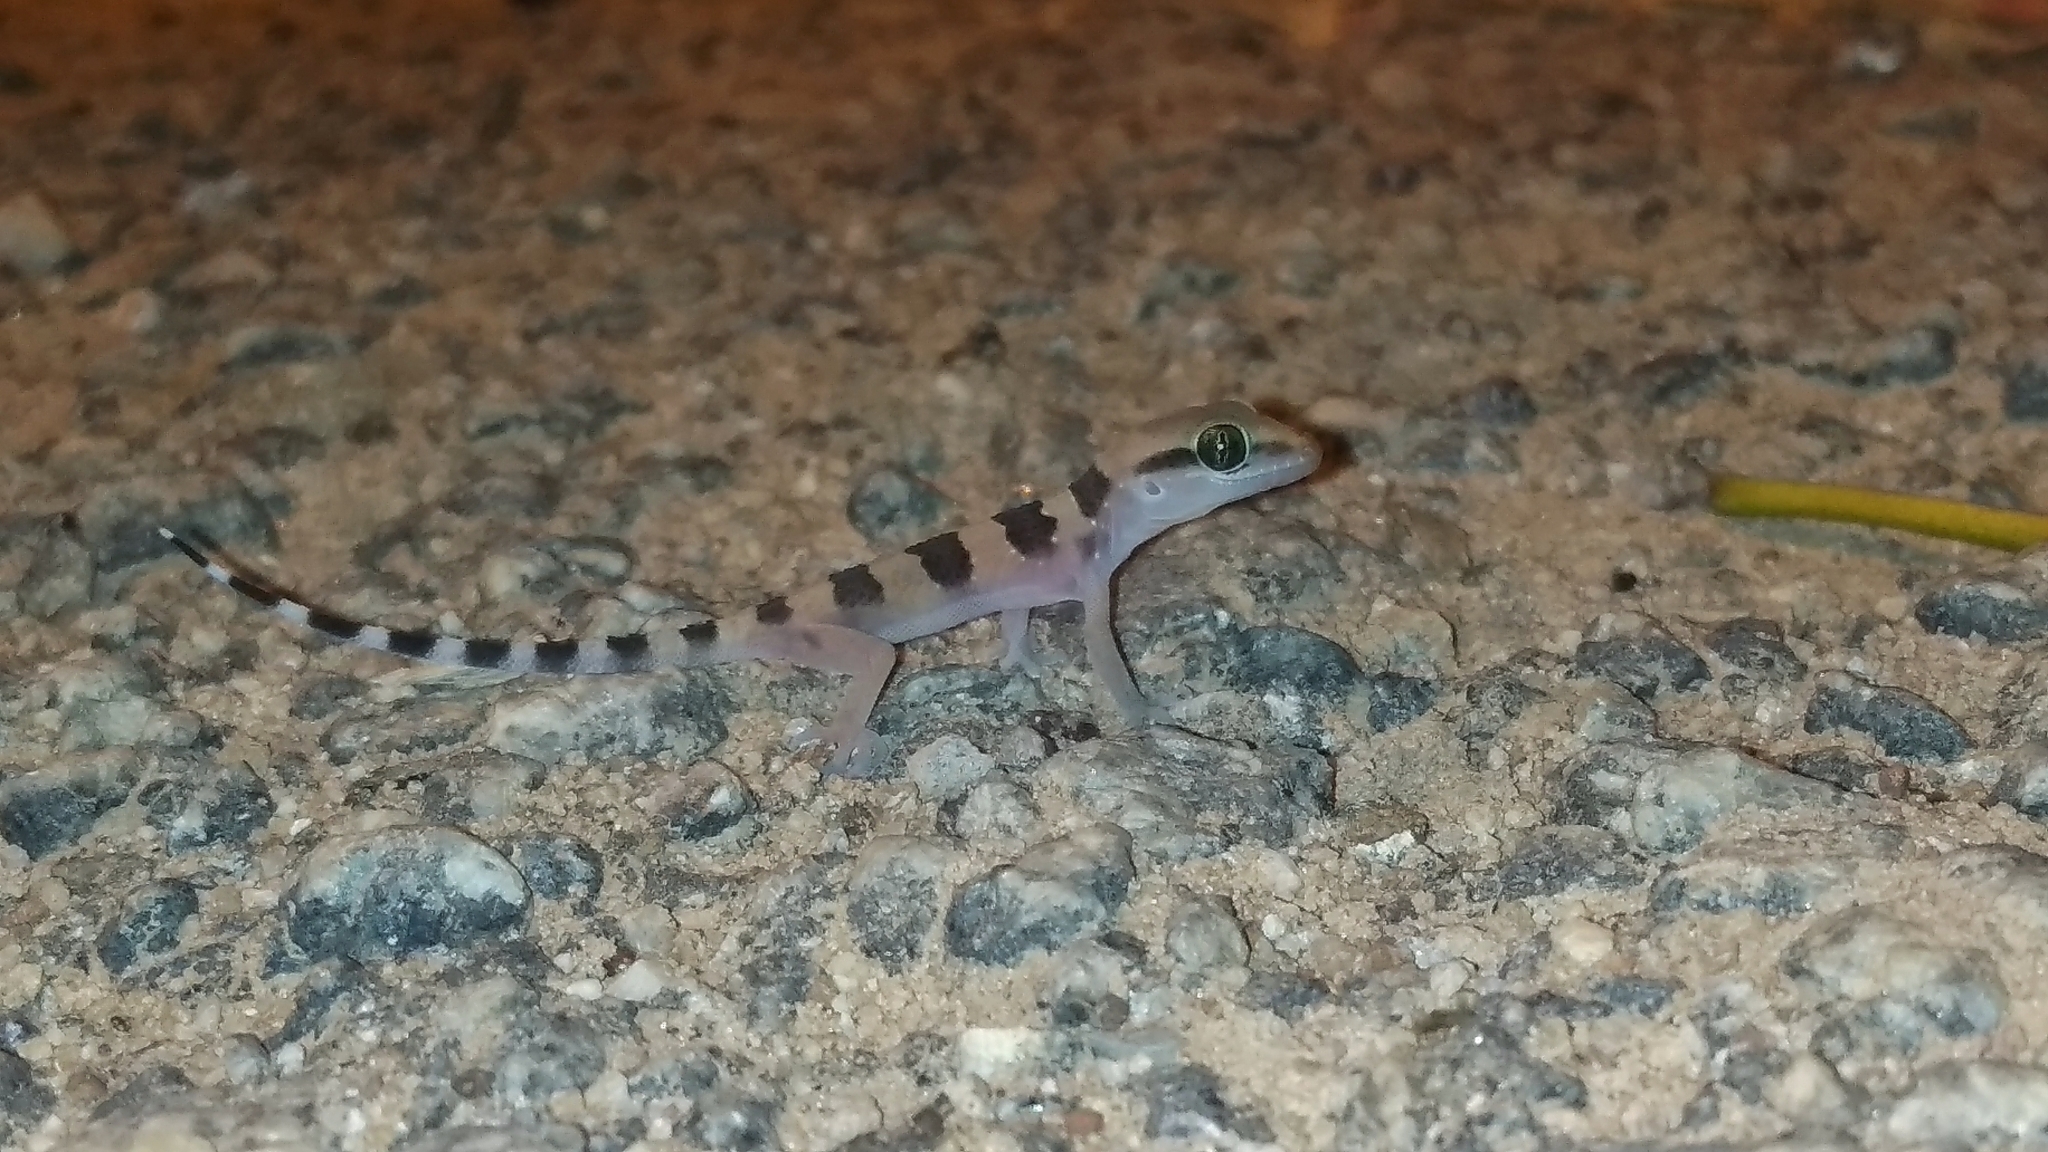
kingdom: Animalia
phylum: Chordata
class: Squamata
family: Gekkonidae
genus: Hemidactylus
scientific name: Hemidactylus triedrus
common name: Blotched house gecko
